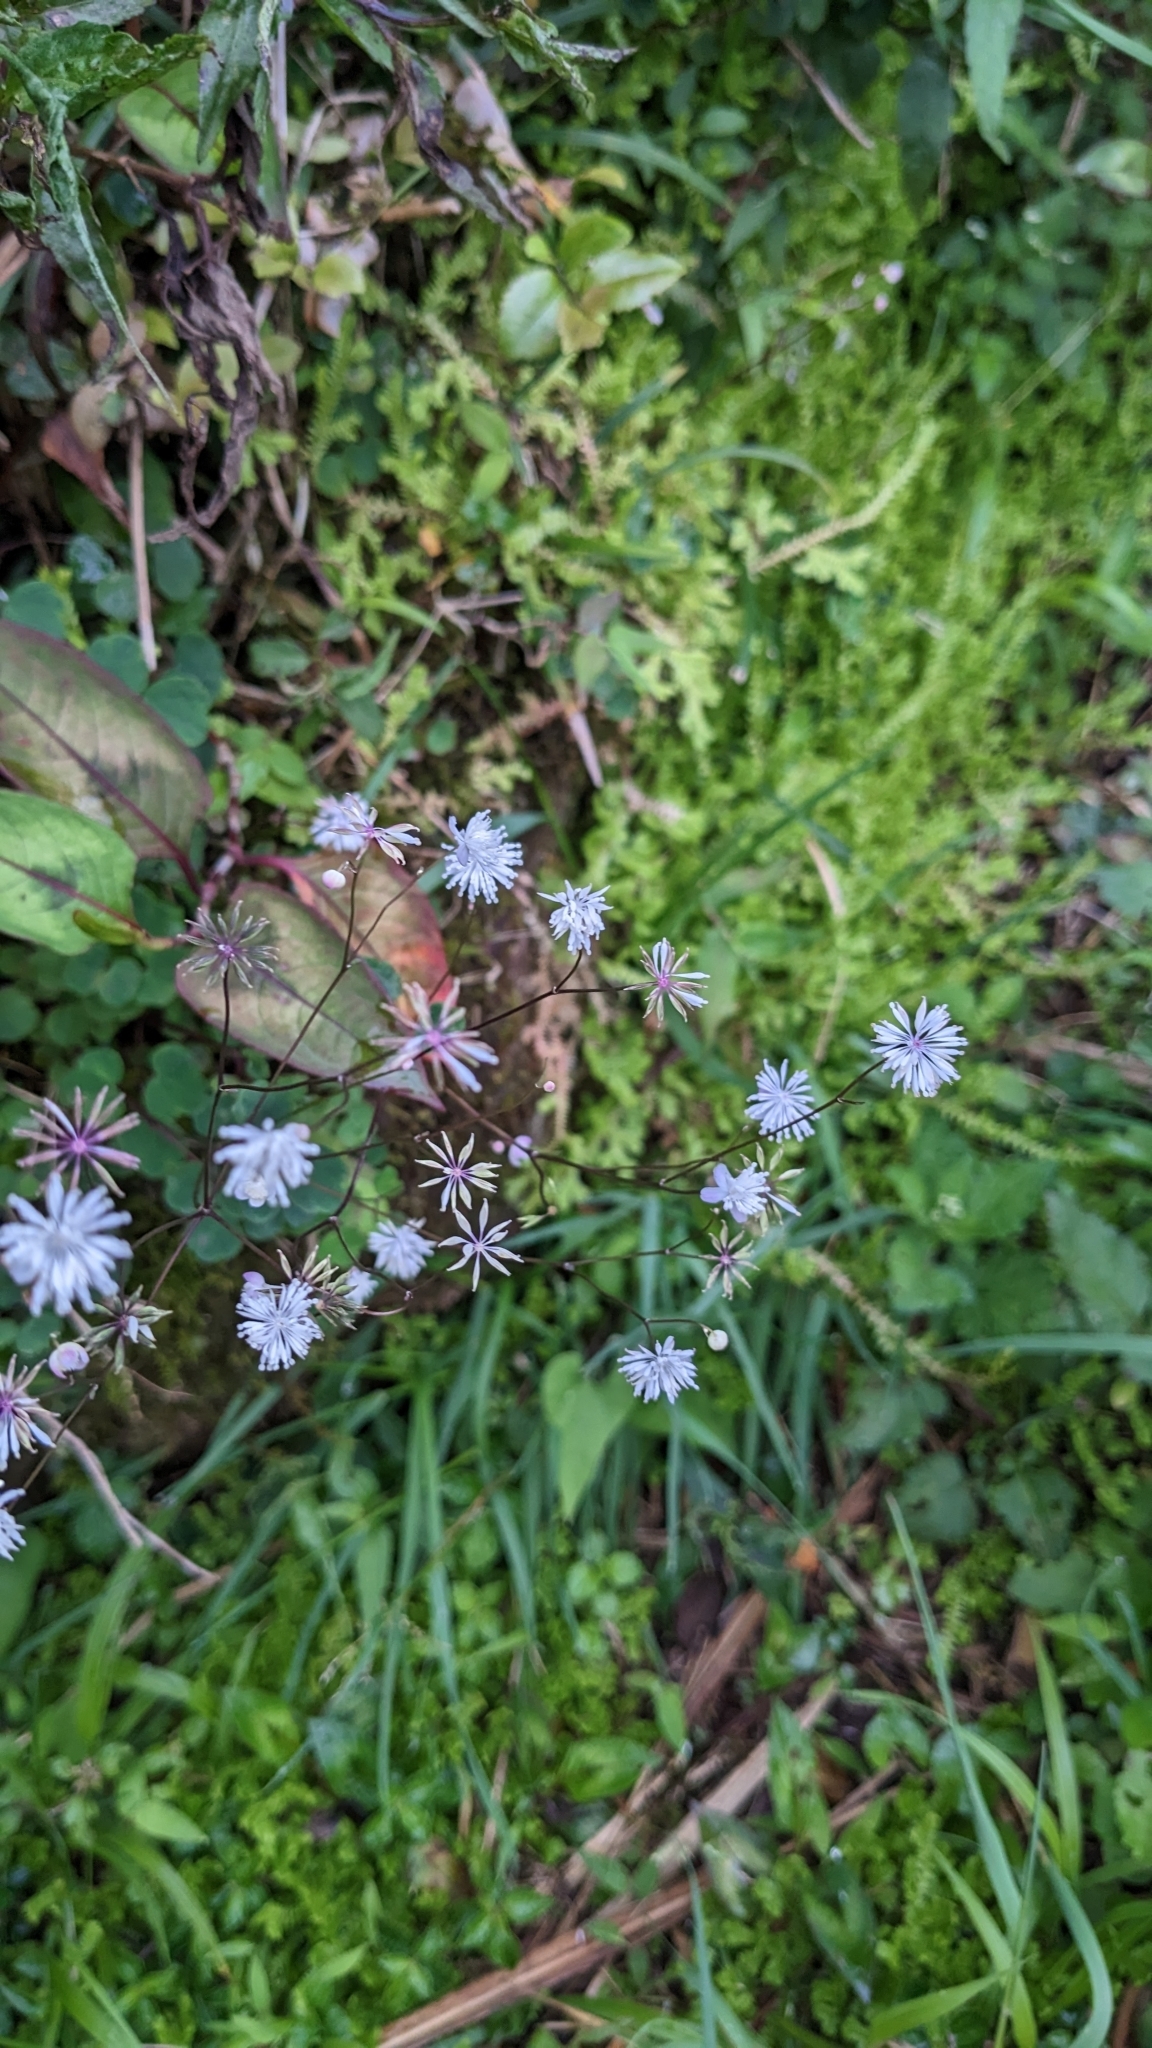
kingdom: Plantae
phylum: Tracheophyta
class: Magnoliopsida
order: Ranunculales
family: Ranunculaceae
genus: Thalictrum
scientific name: Thalictrum urbaini
